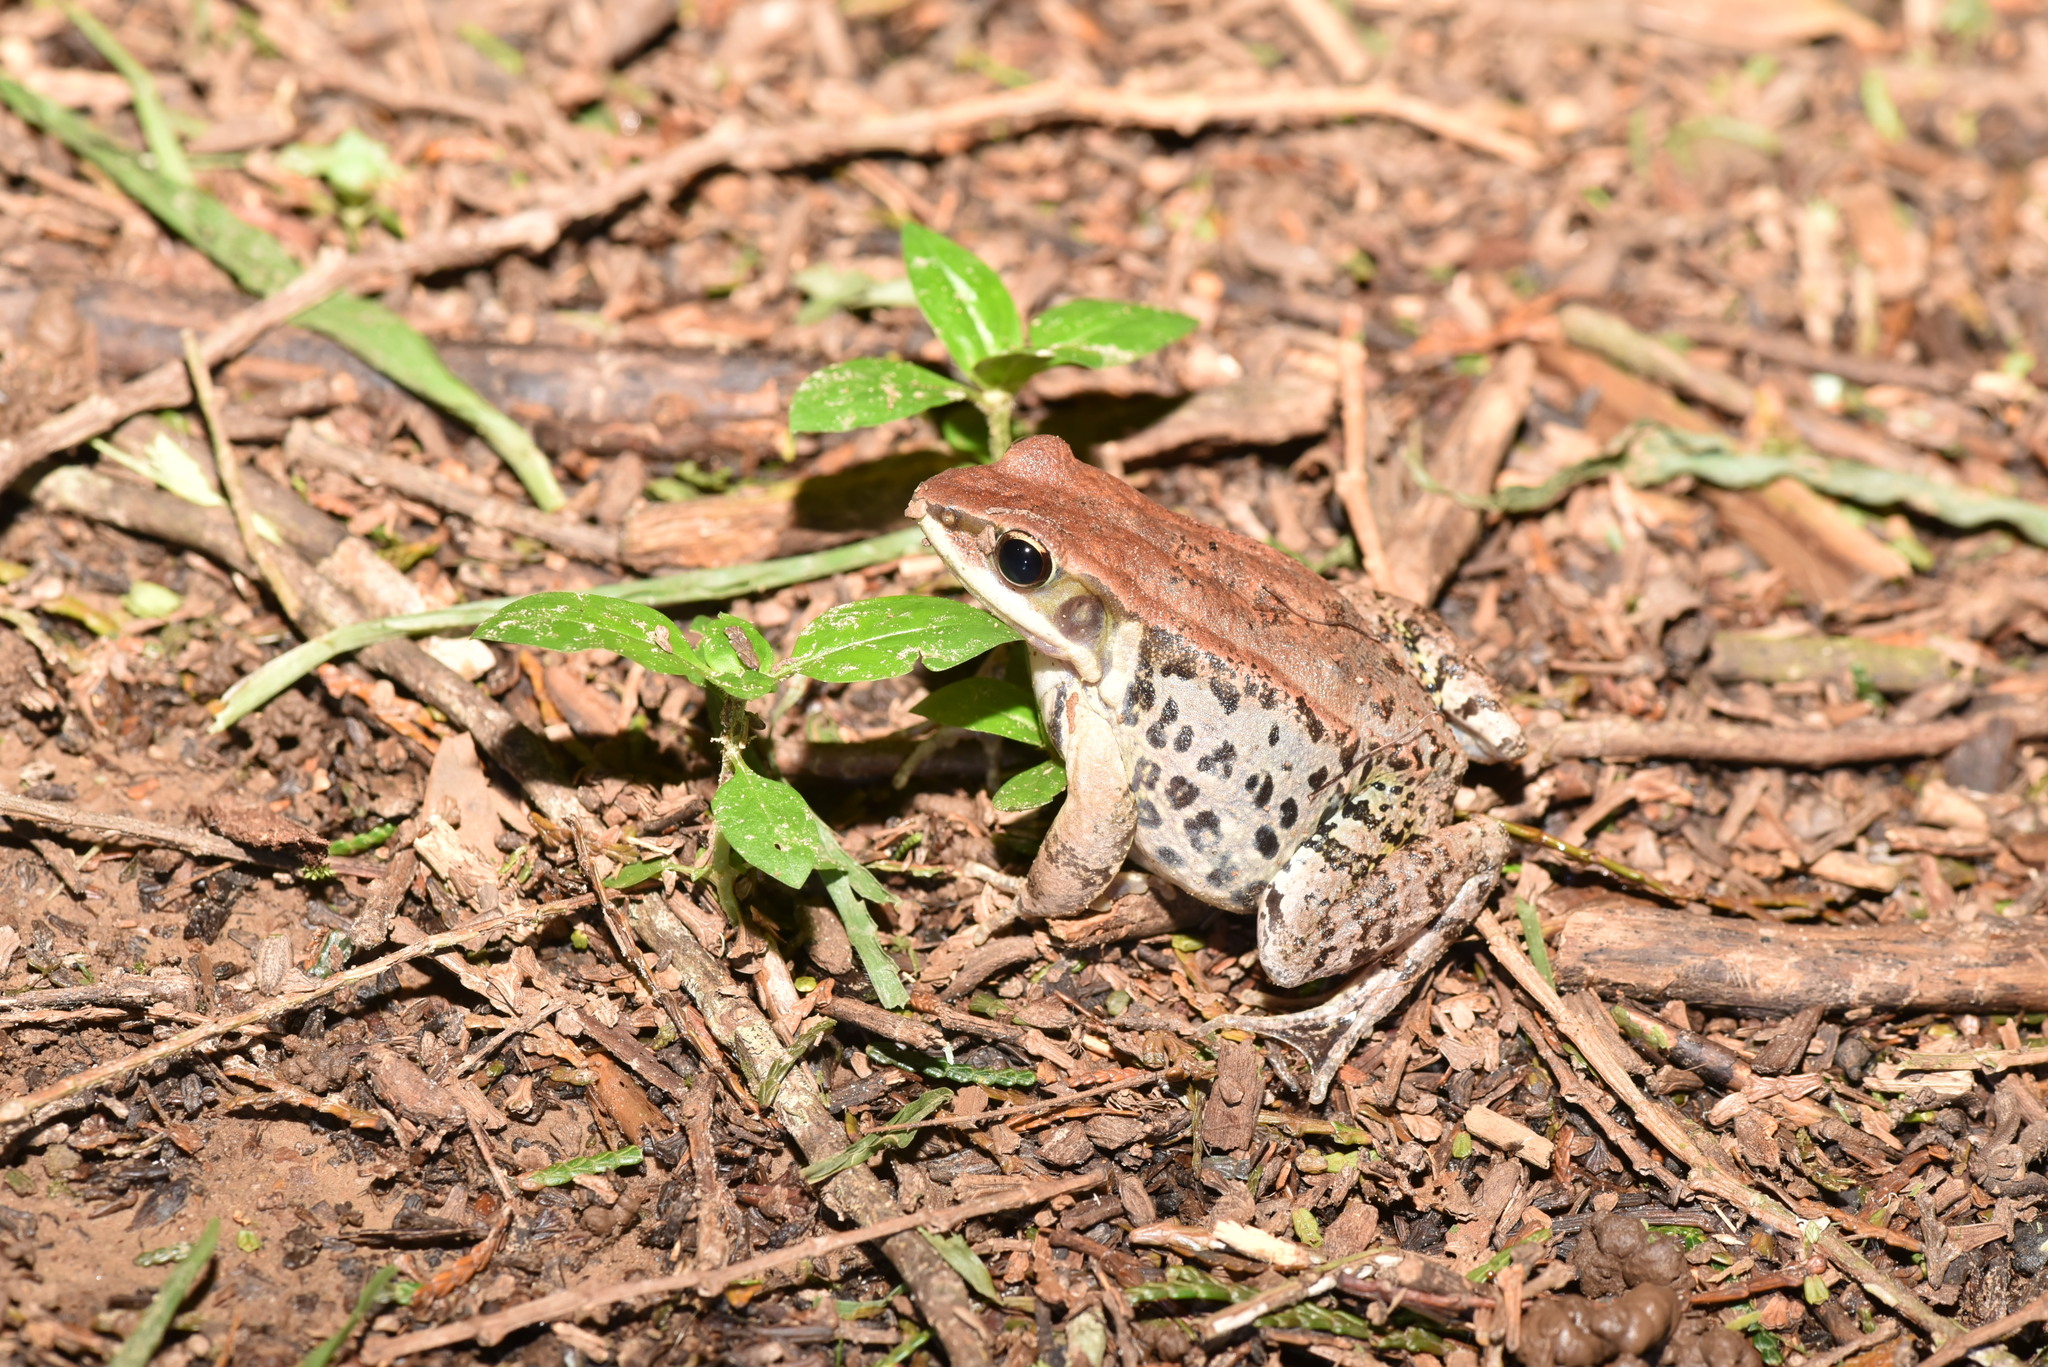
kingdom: Animalia
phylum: Chordata
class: Amphibia
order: Anura
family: Ranidae
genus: Hylarana
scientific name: Hylarana latouchii
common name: Broad-folded frog
